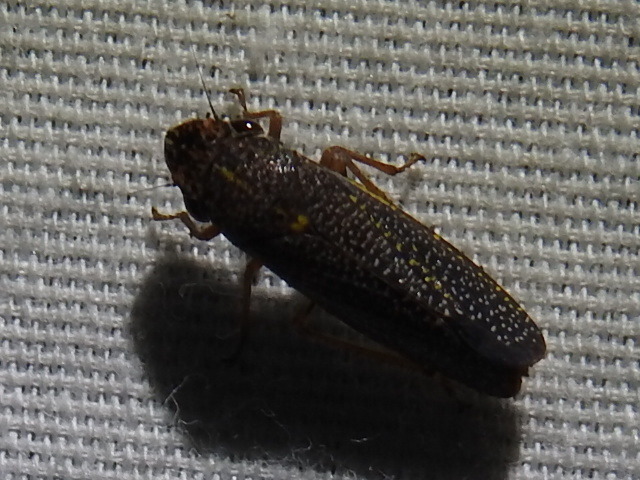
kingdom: Animalia
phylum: Arthropoda
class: Insecta
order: Hemiptera
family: Cicadellidae
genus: Paraulacizes
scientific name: Paraulacizes irrorata
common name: Speckled sharpshooter
